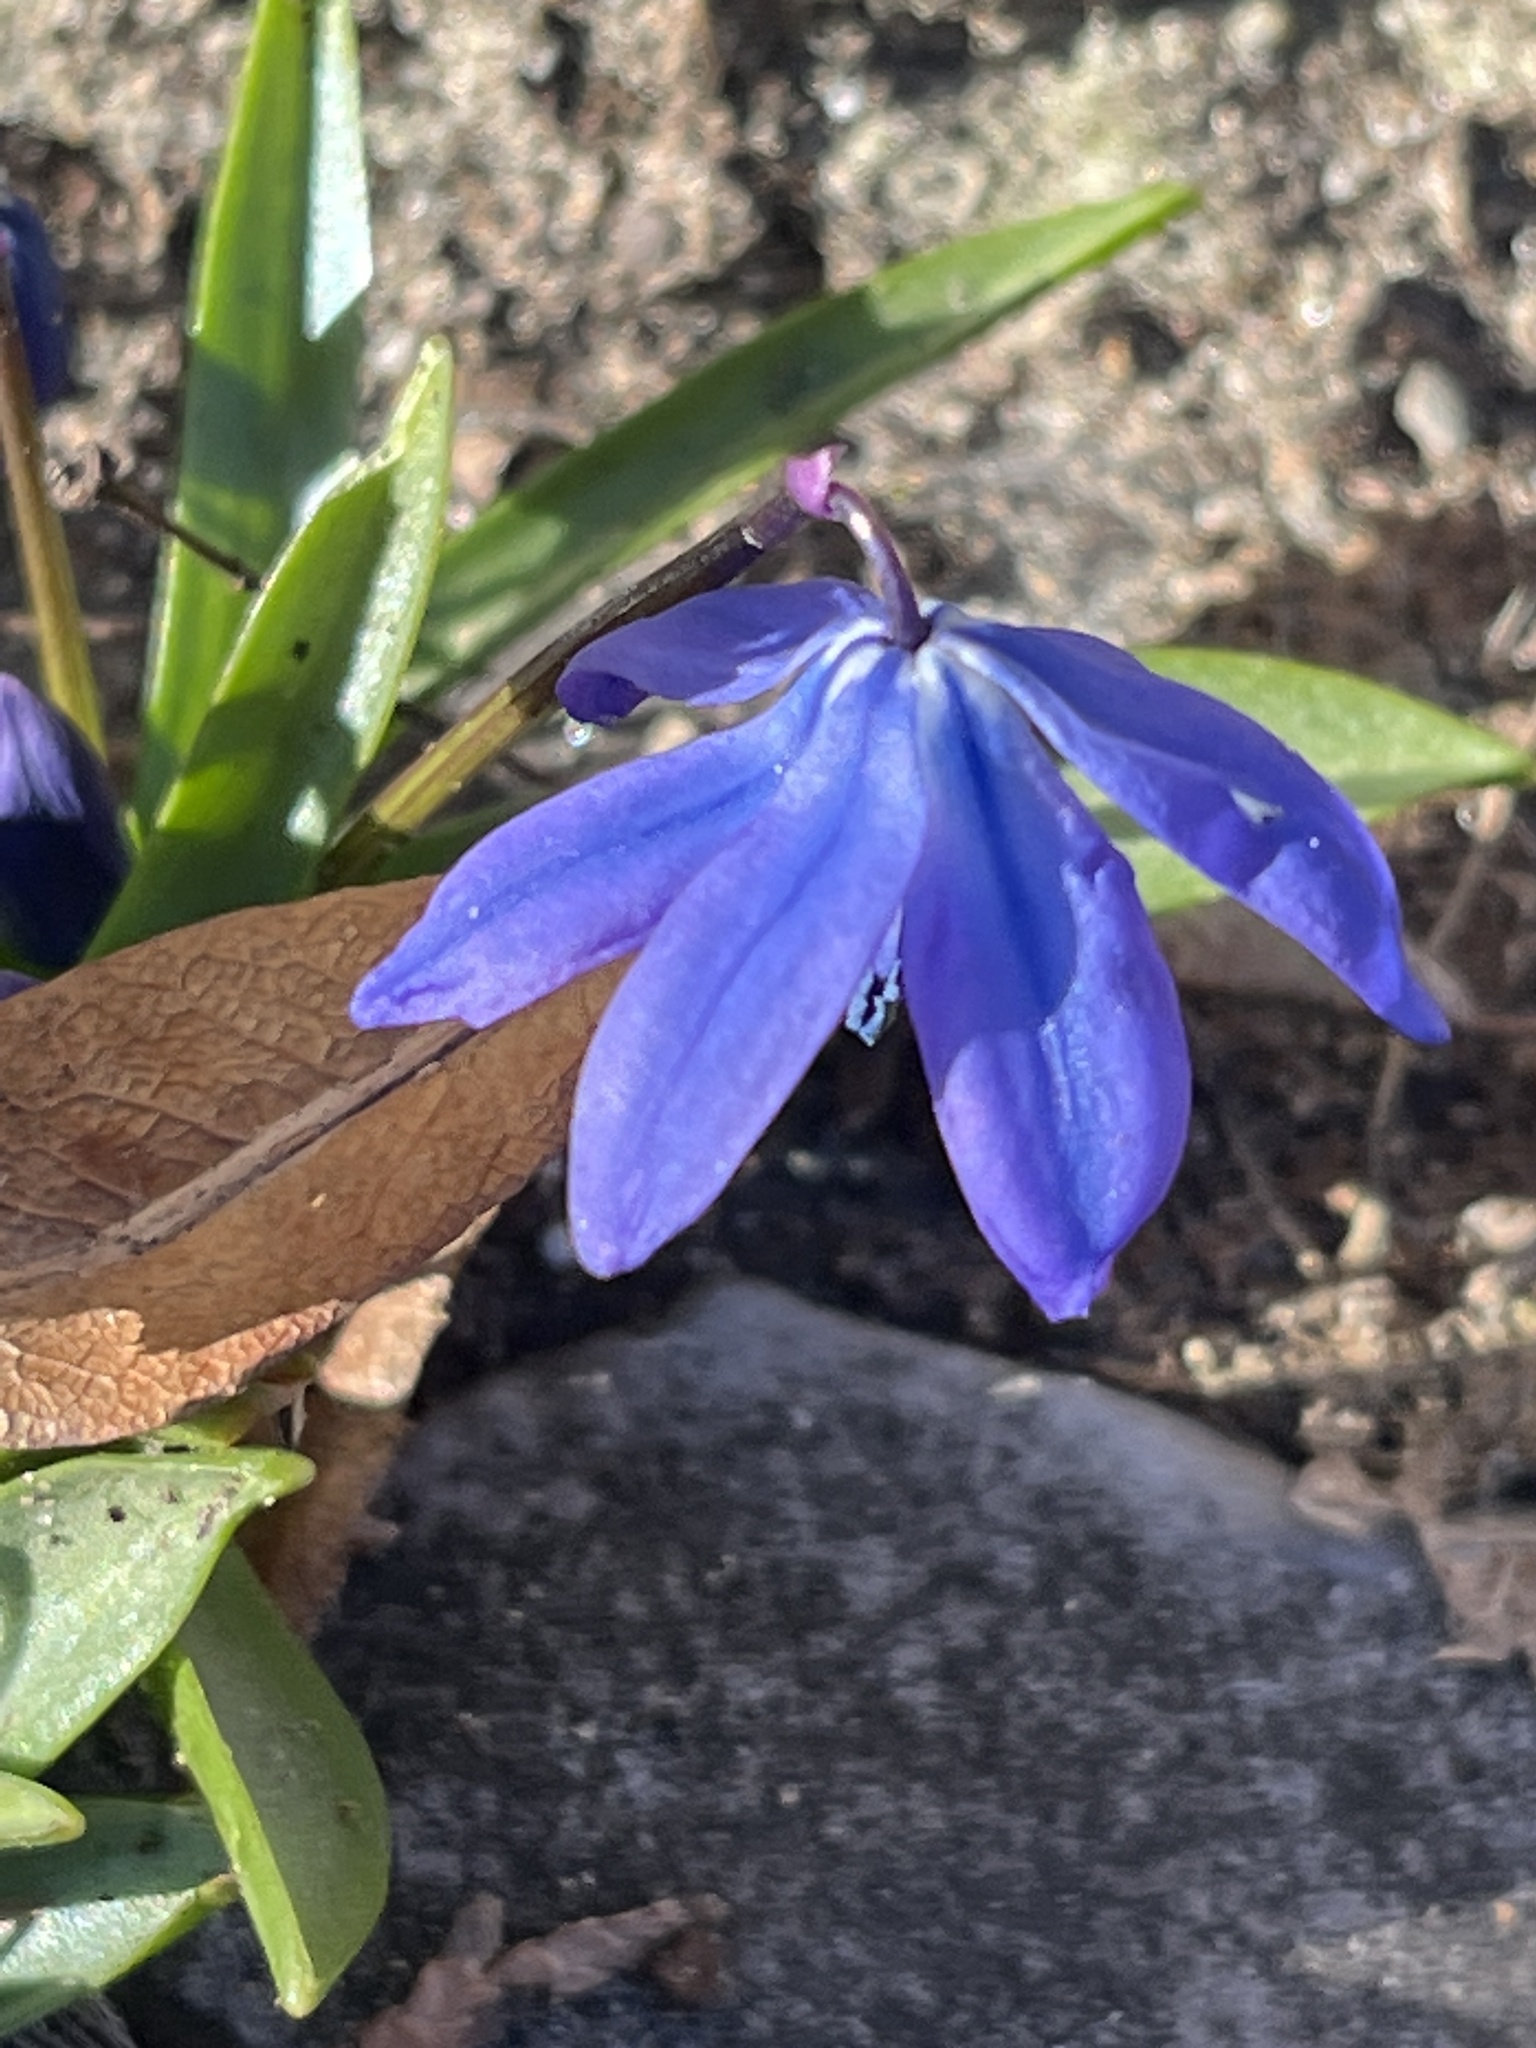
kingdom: Plantae
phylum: Tracheophyta
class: Liliopsida
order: Asparagales
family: Asparagaceae
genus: Scilla
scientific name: Scilla siberica
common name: Siberian squill
